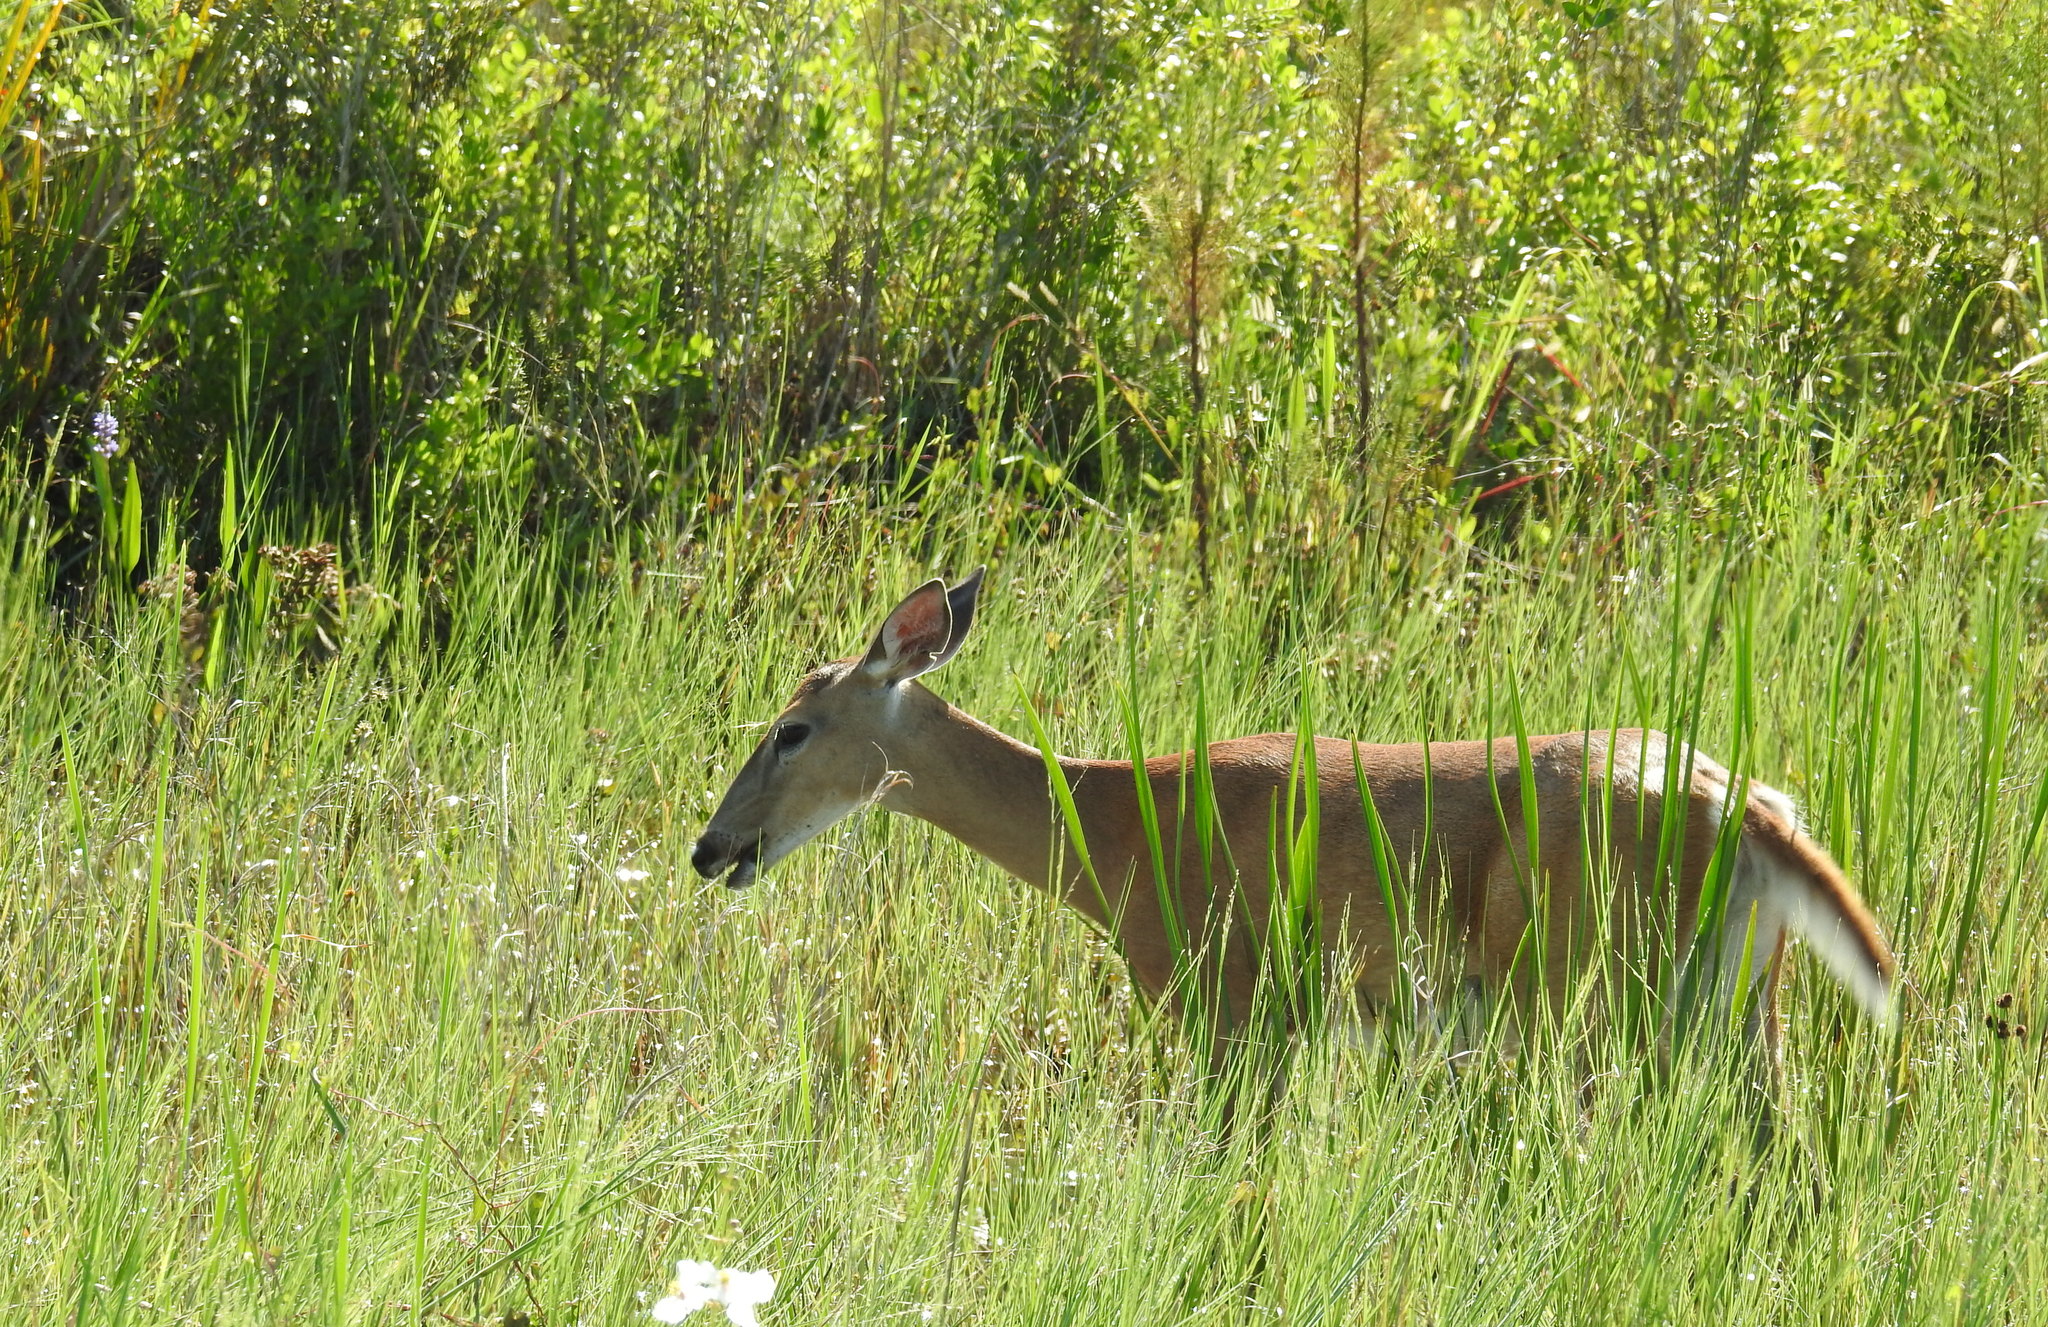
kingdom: Animalia
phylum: Chordata
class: Mammalia
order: Artiodactyla
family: Cervidae
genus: Odocoileus
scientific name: Odocoileus virginianus
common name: White-tailed deer
